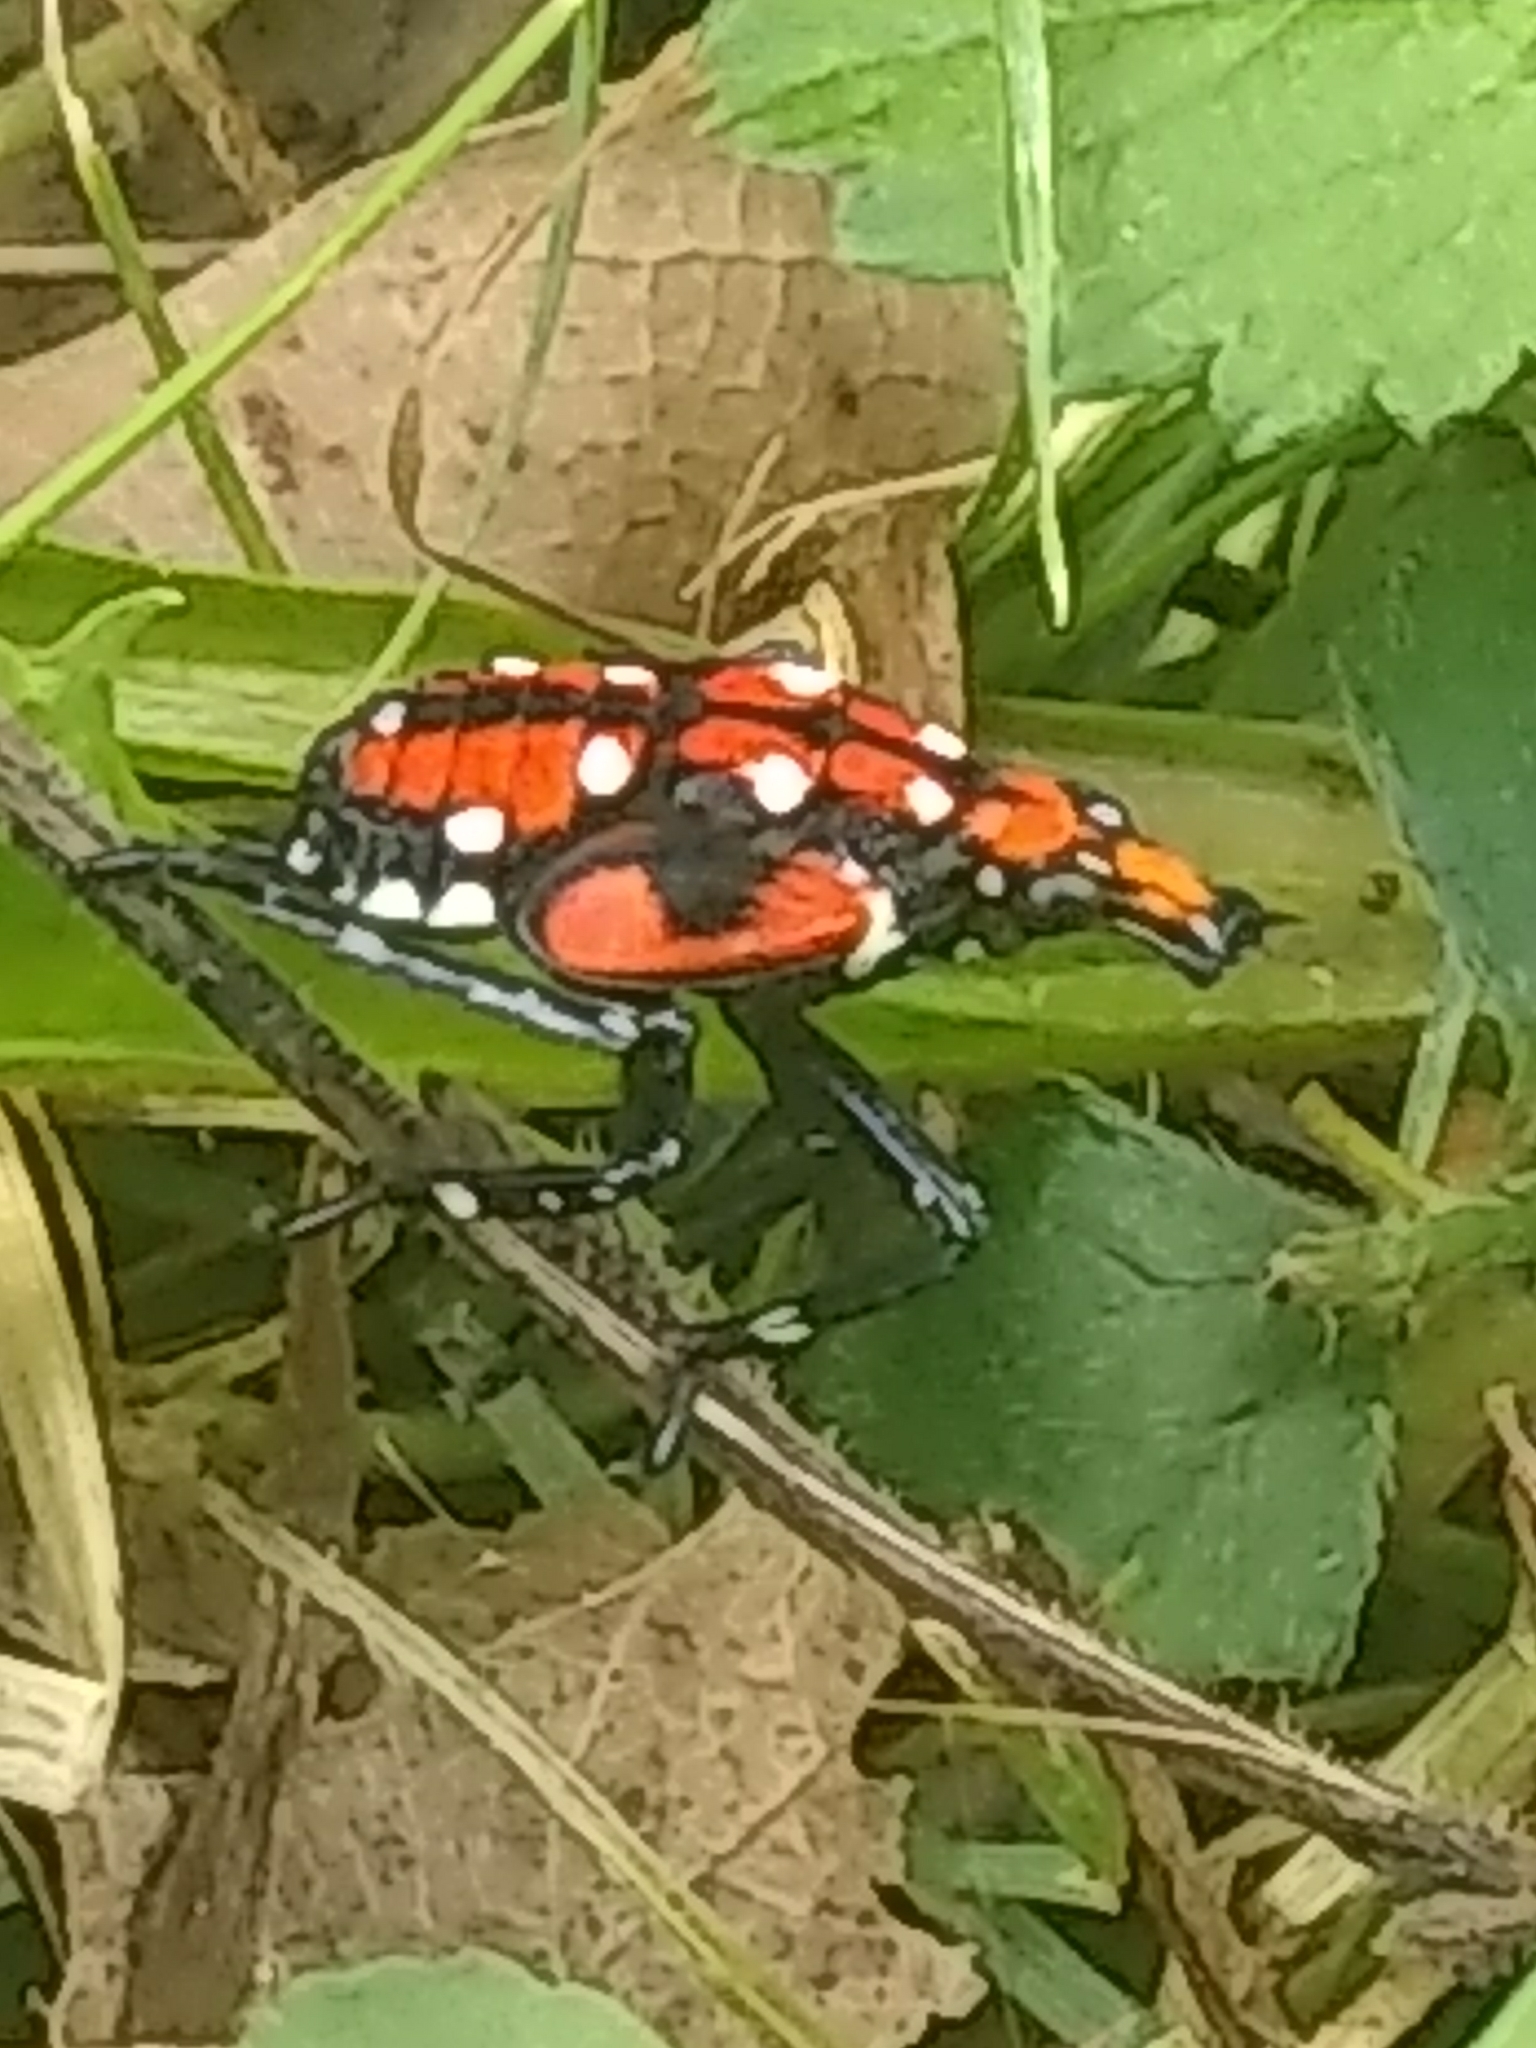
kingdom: Animalia
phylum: Arthropoda
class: Insecta
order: Hemiptera
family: Fulgoridae
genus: Lycorma
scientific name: Lycorma delicatula
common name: Spotted lanternfly
